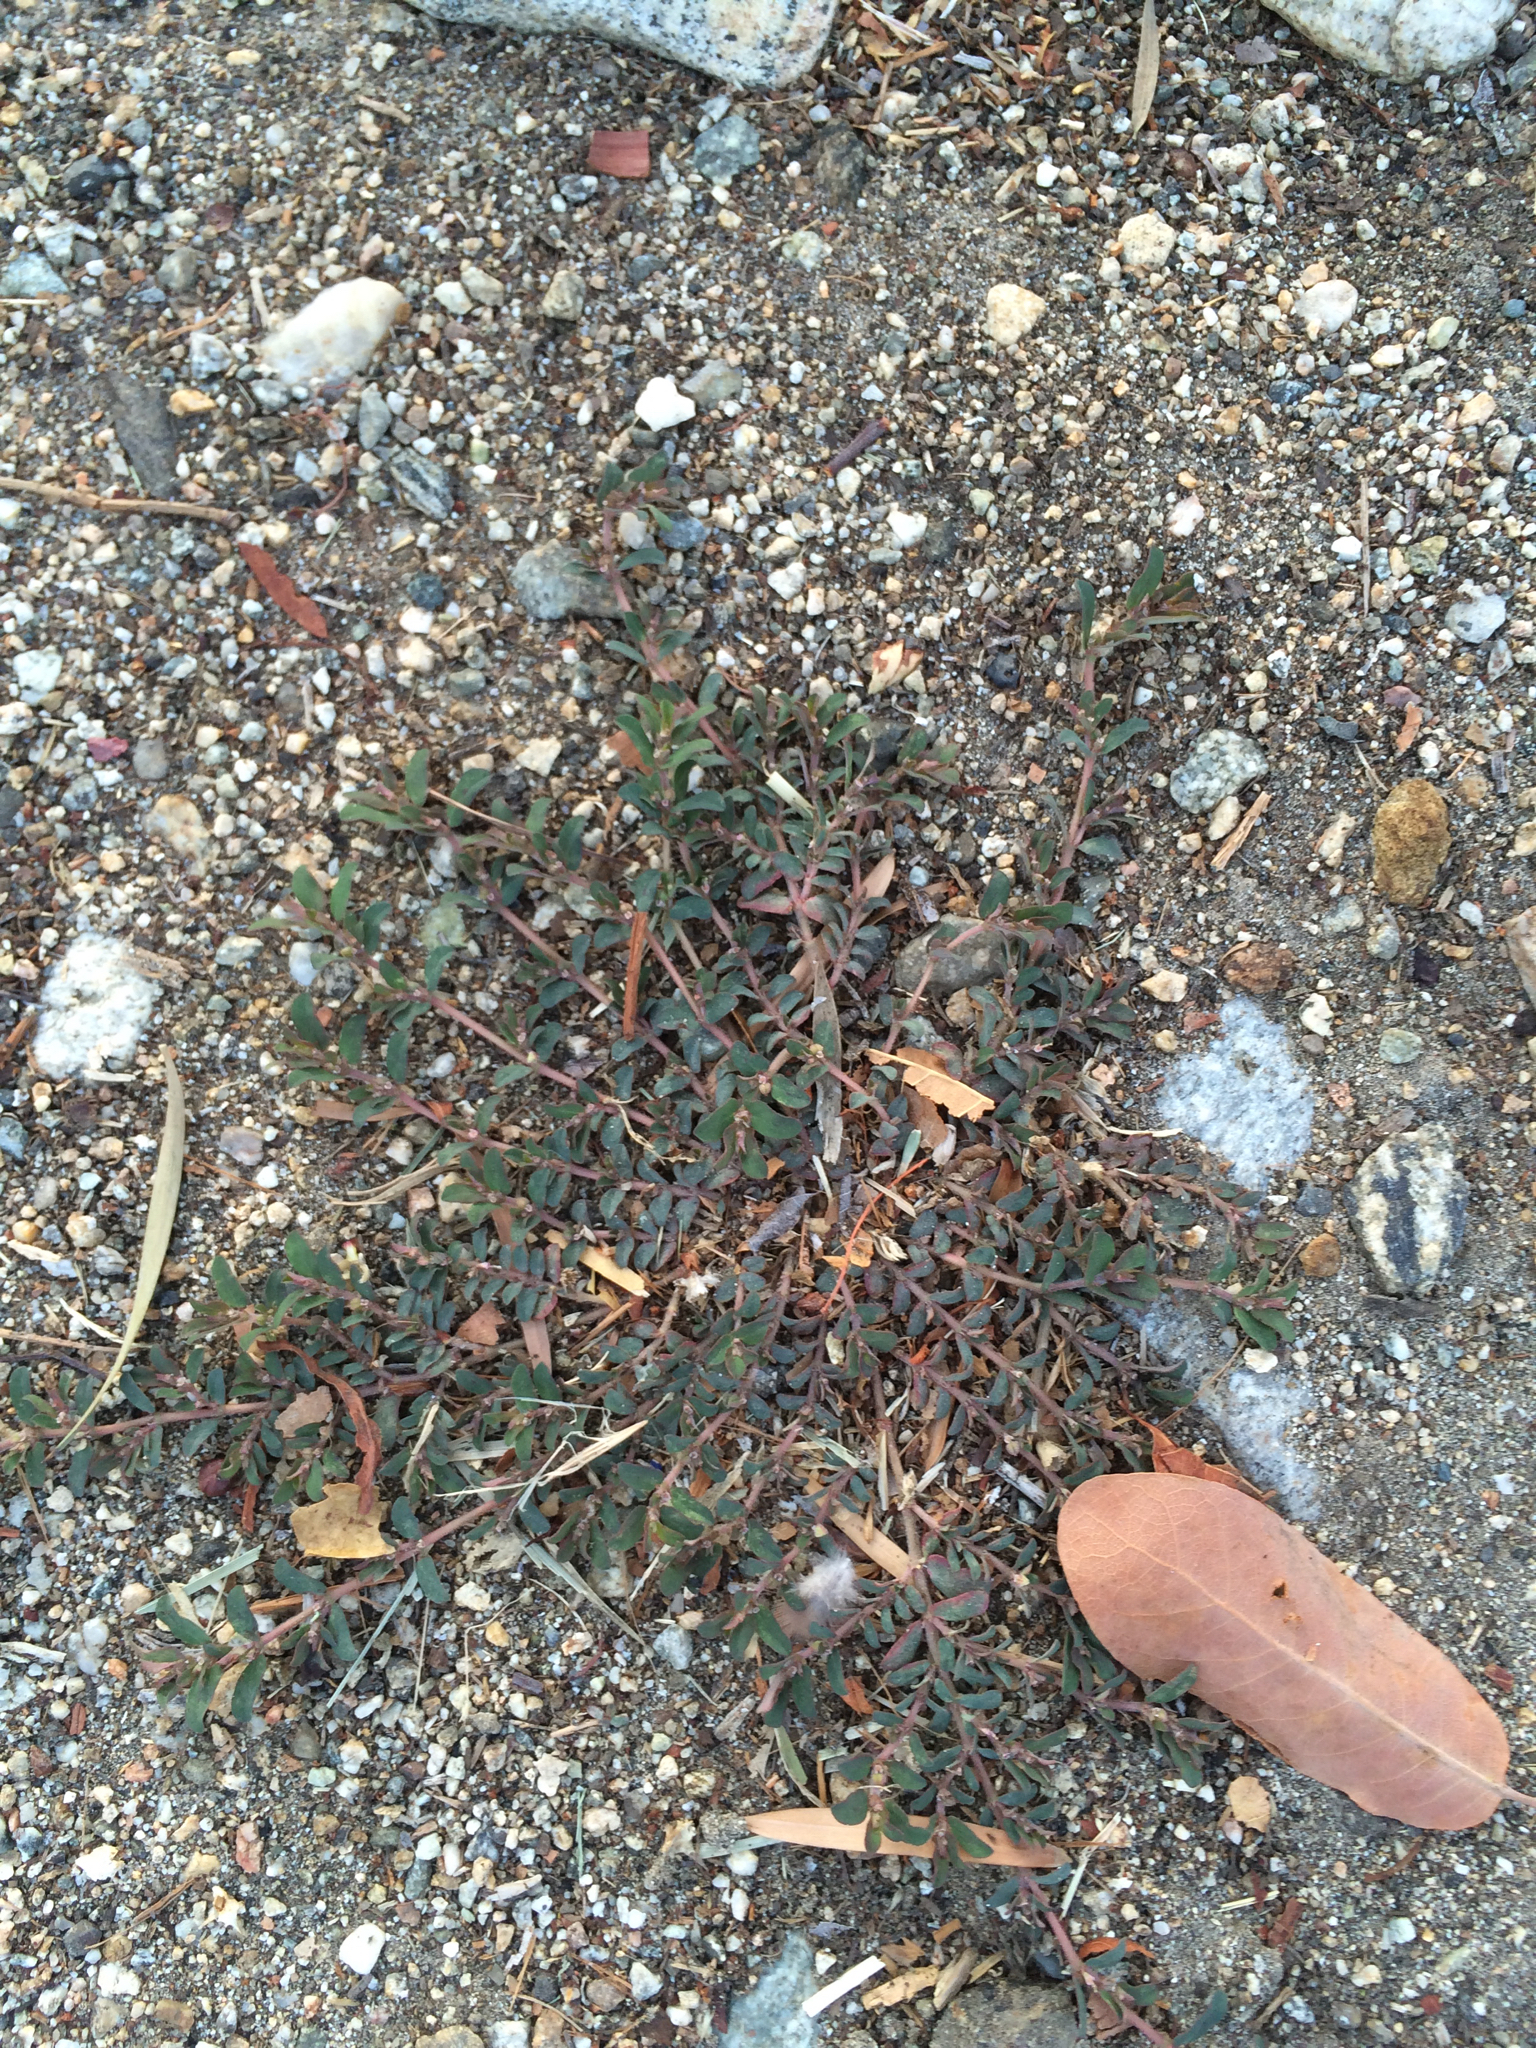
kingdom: Plantae
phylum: Tracheophyta
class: Magnoliopsida
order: Malpighiales
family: Euphorbiaceae
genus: Euphorbia
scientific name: Euphorbia maculata
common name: Spotted spurge
